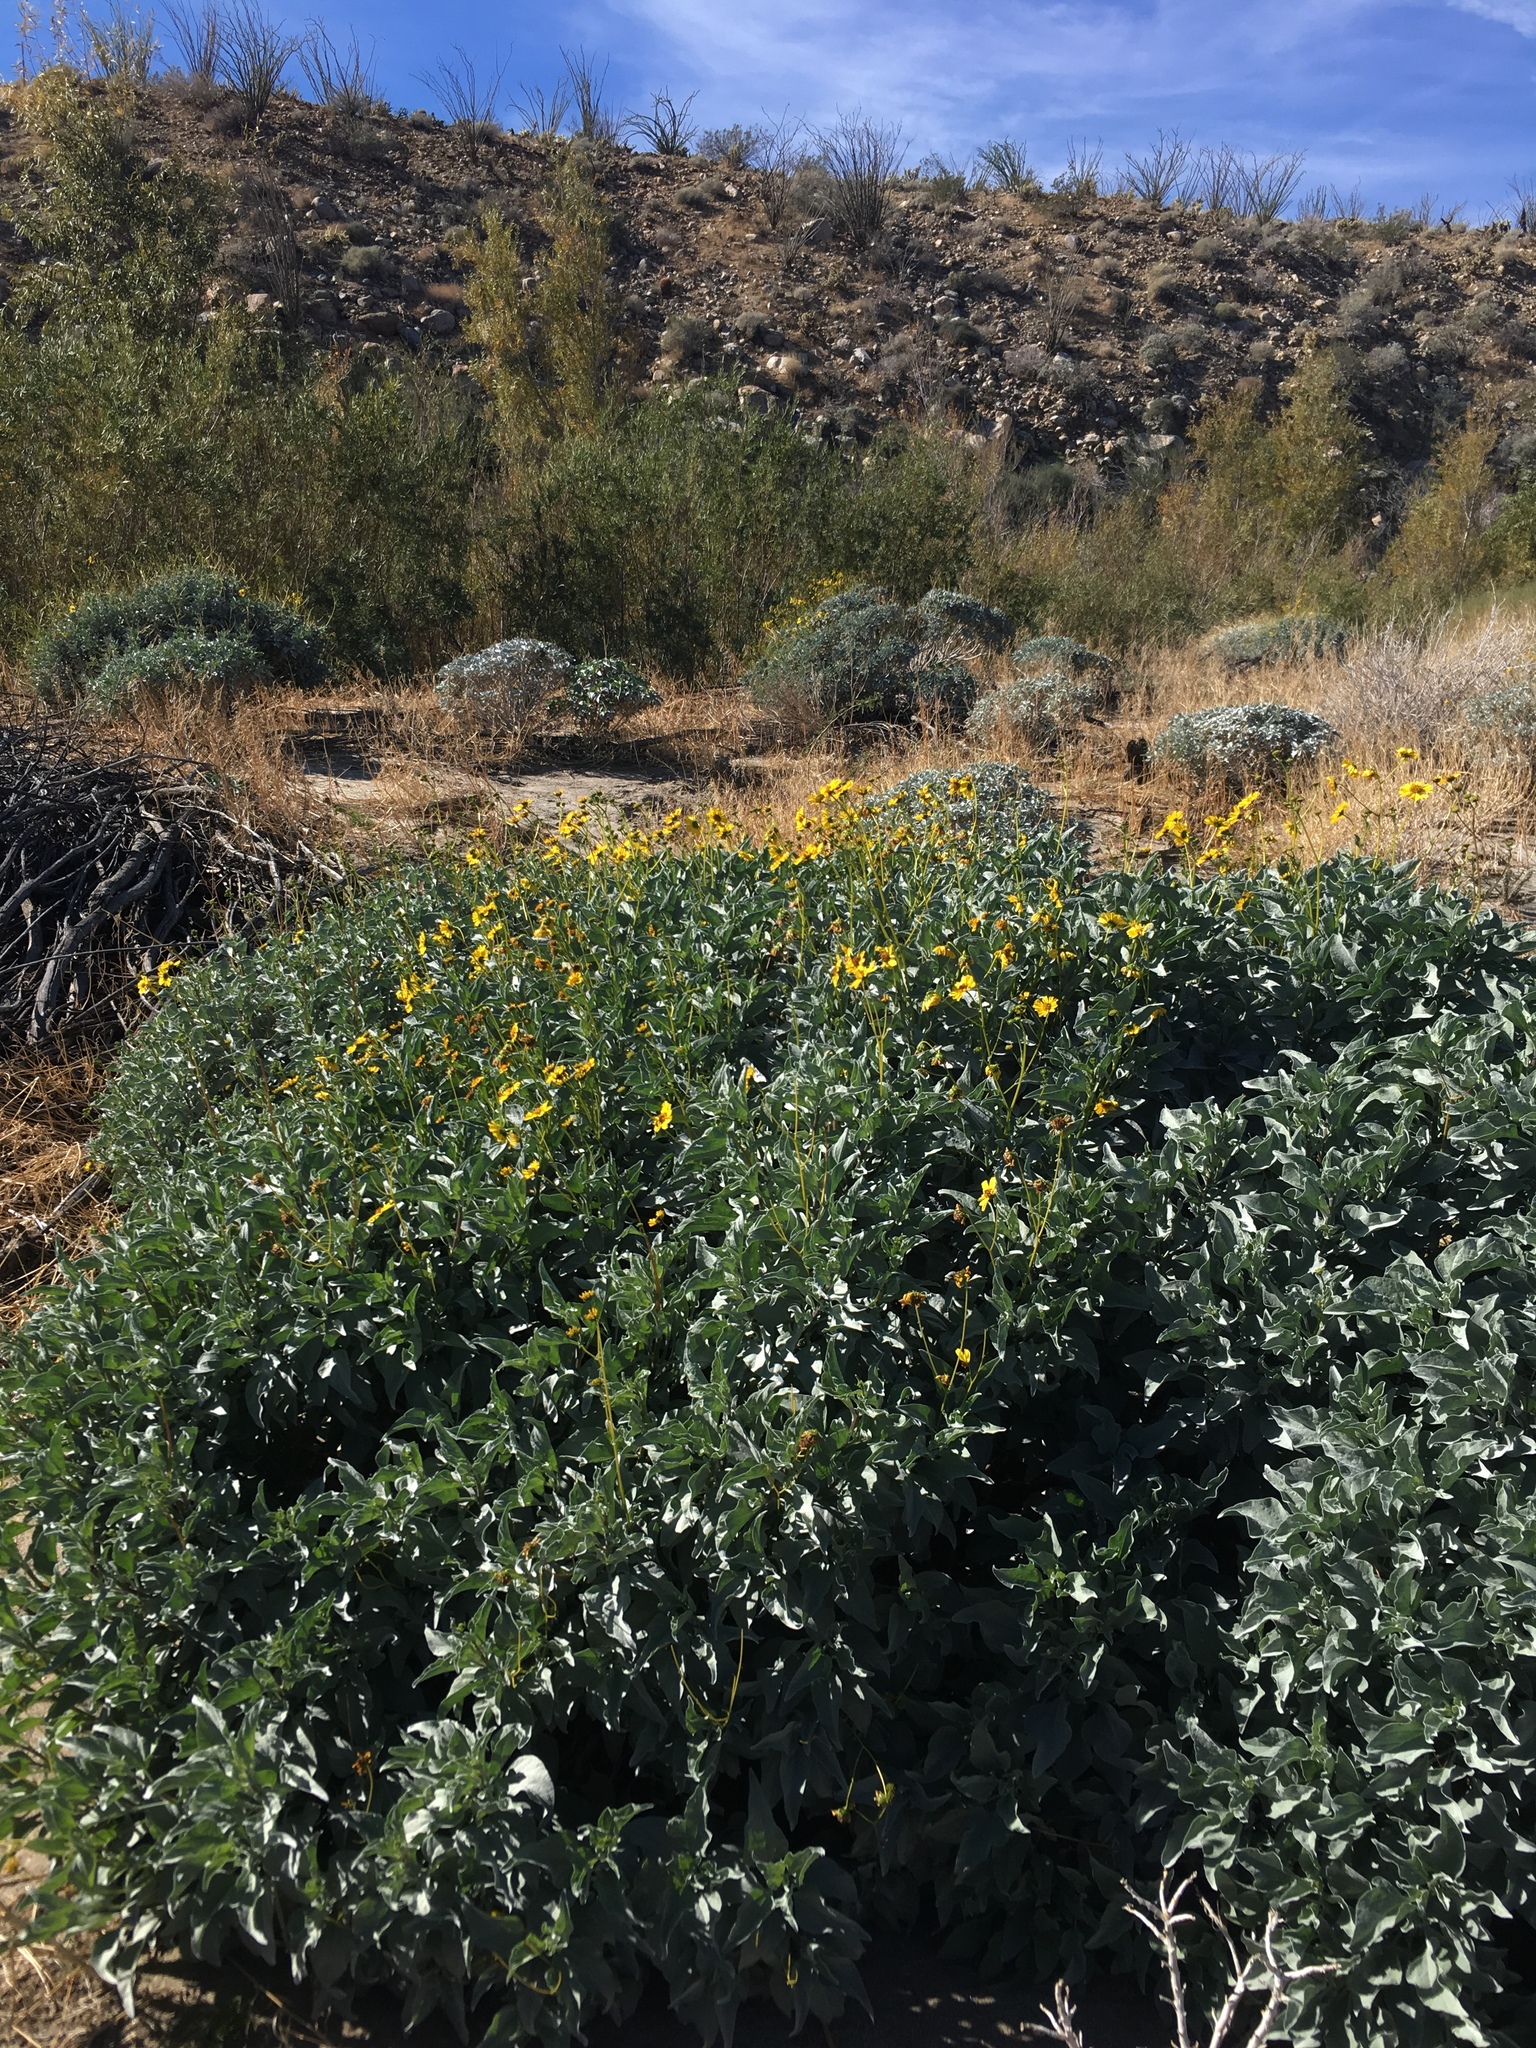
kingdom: Plantae
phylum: Tracheophyta
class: Magnoliopsida
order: Asterales
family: Asteraceae
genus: Encelia
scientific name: Encelia farinosa
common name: Brittlebush
